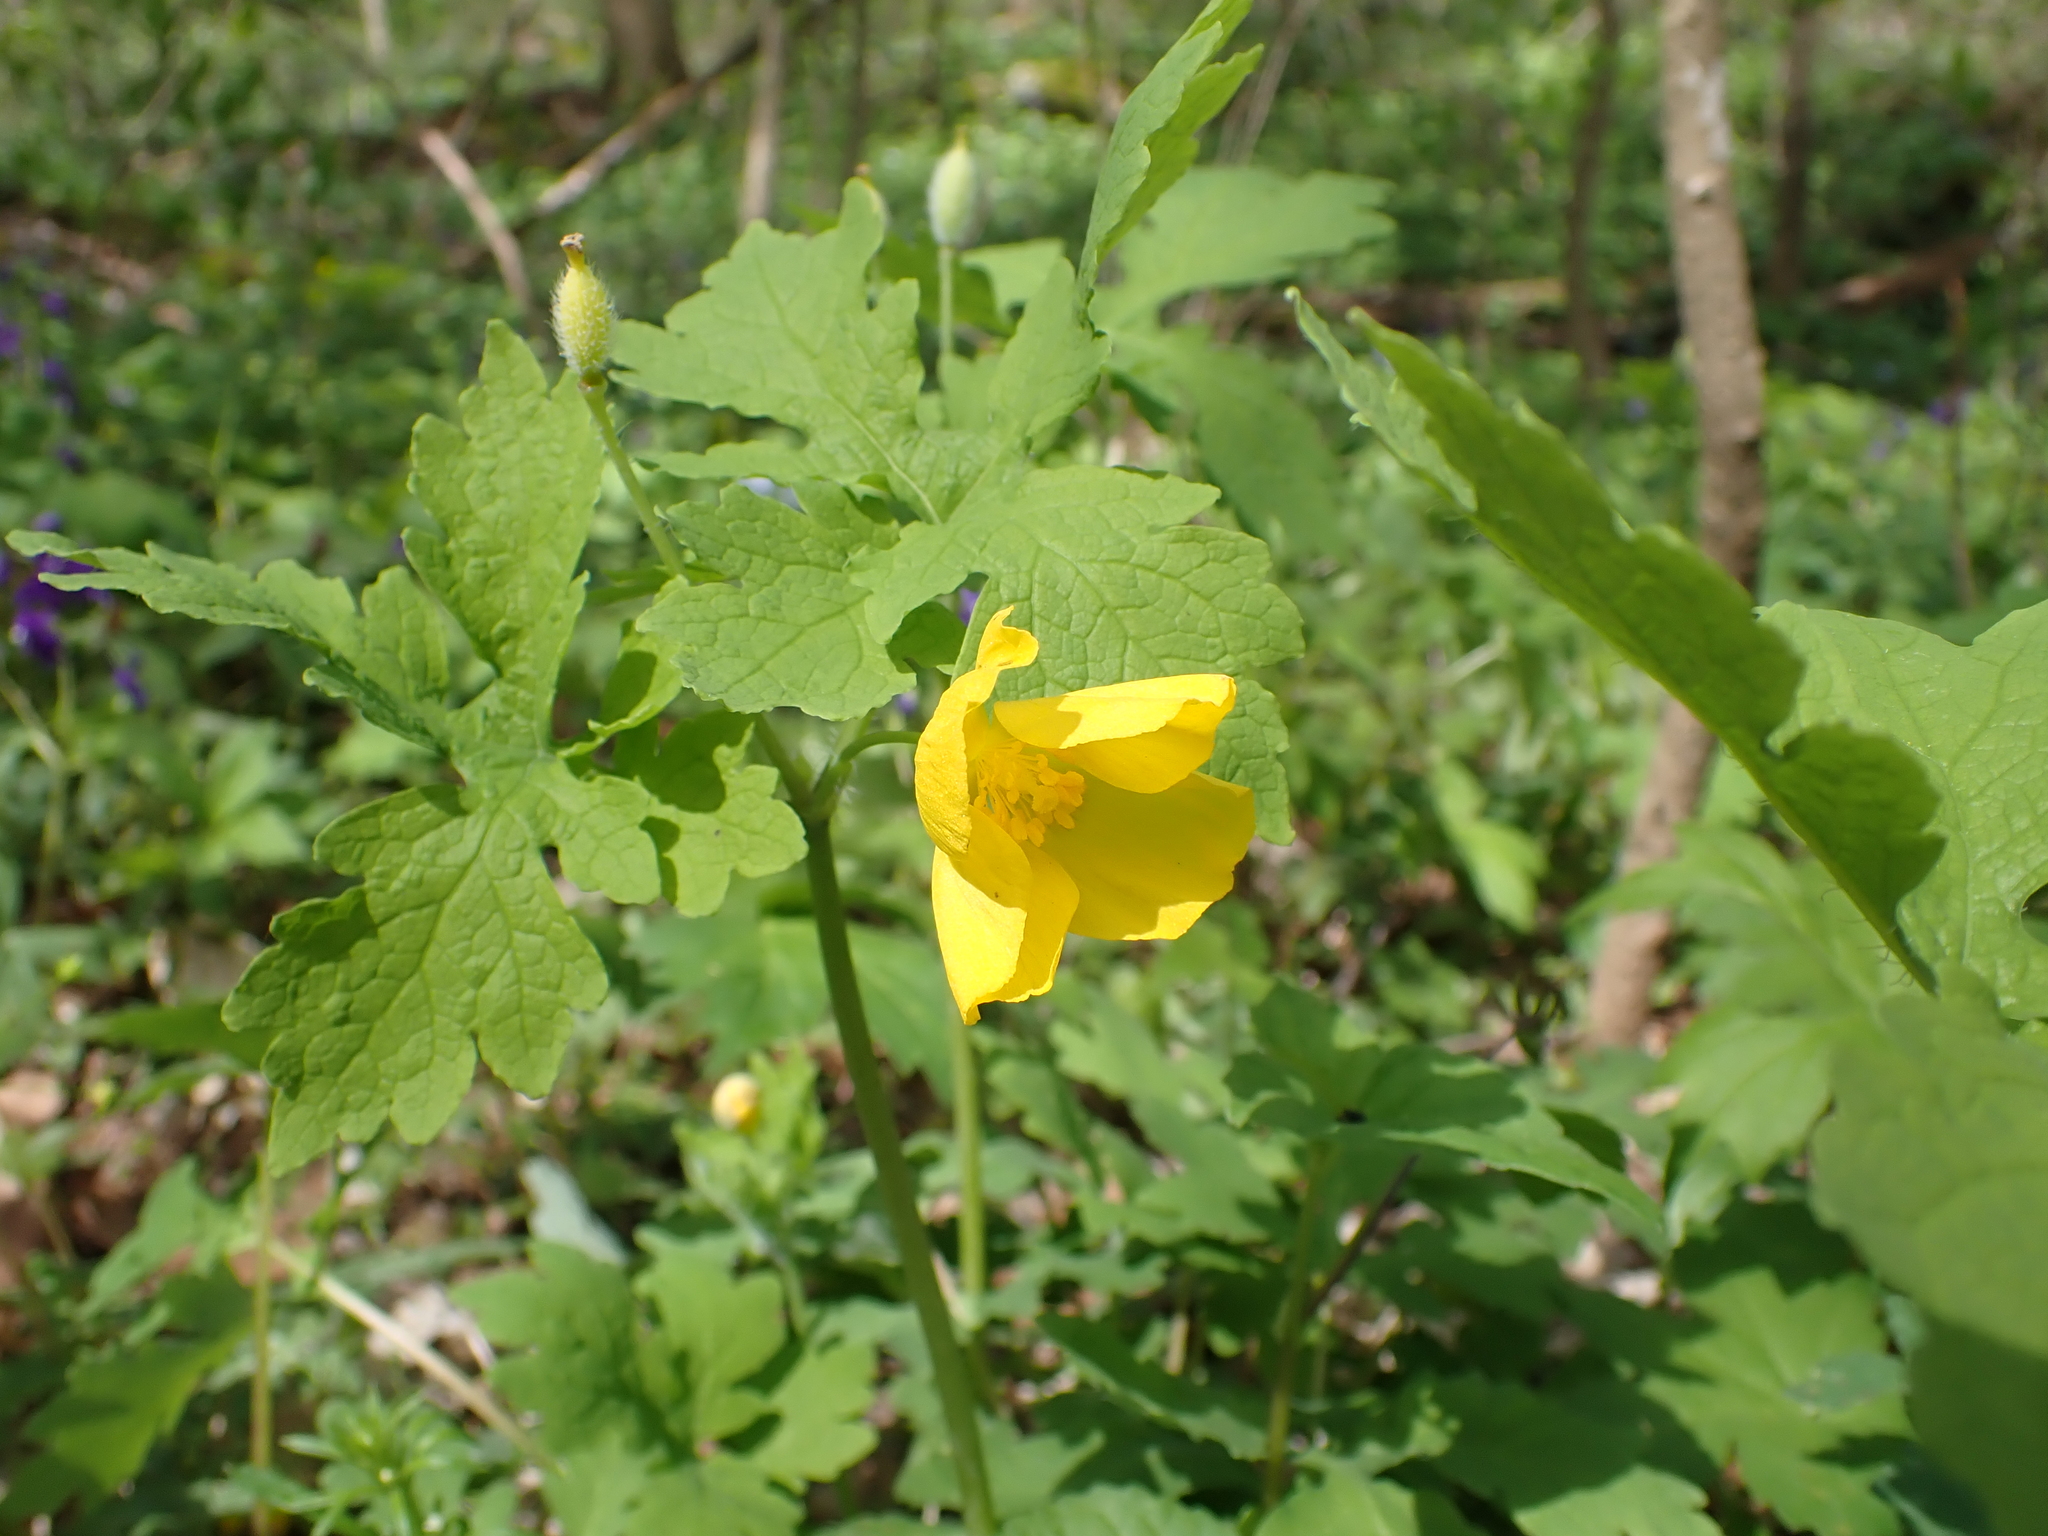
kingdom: Plantae
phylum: Tracheophyta
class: Magnoliopsida
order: Ranunculales
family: Papaveraceae
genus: Stylophorum
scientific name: Stylophorum diphyllum
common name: Celandine poppy
